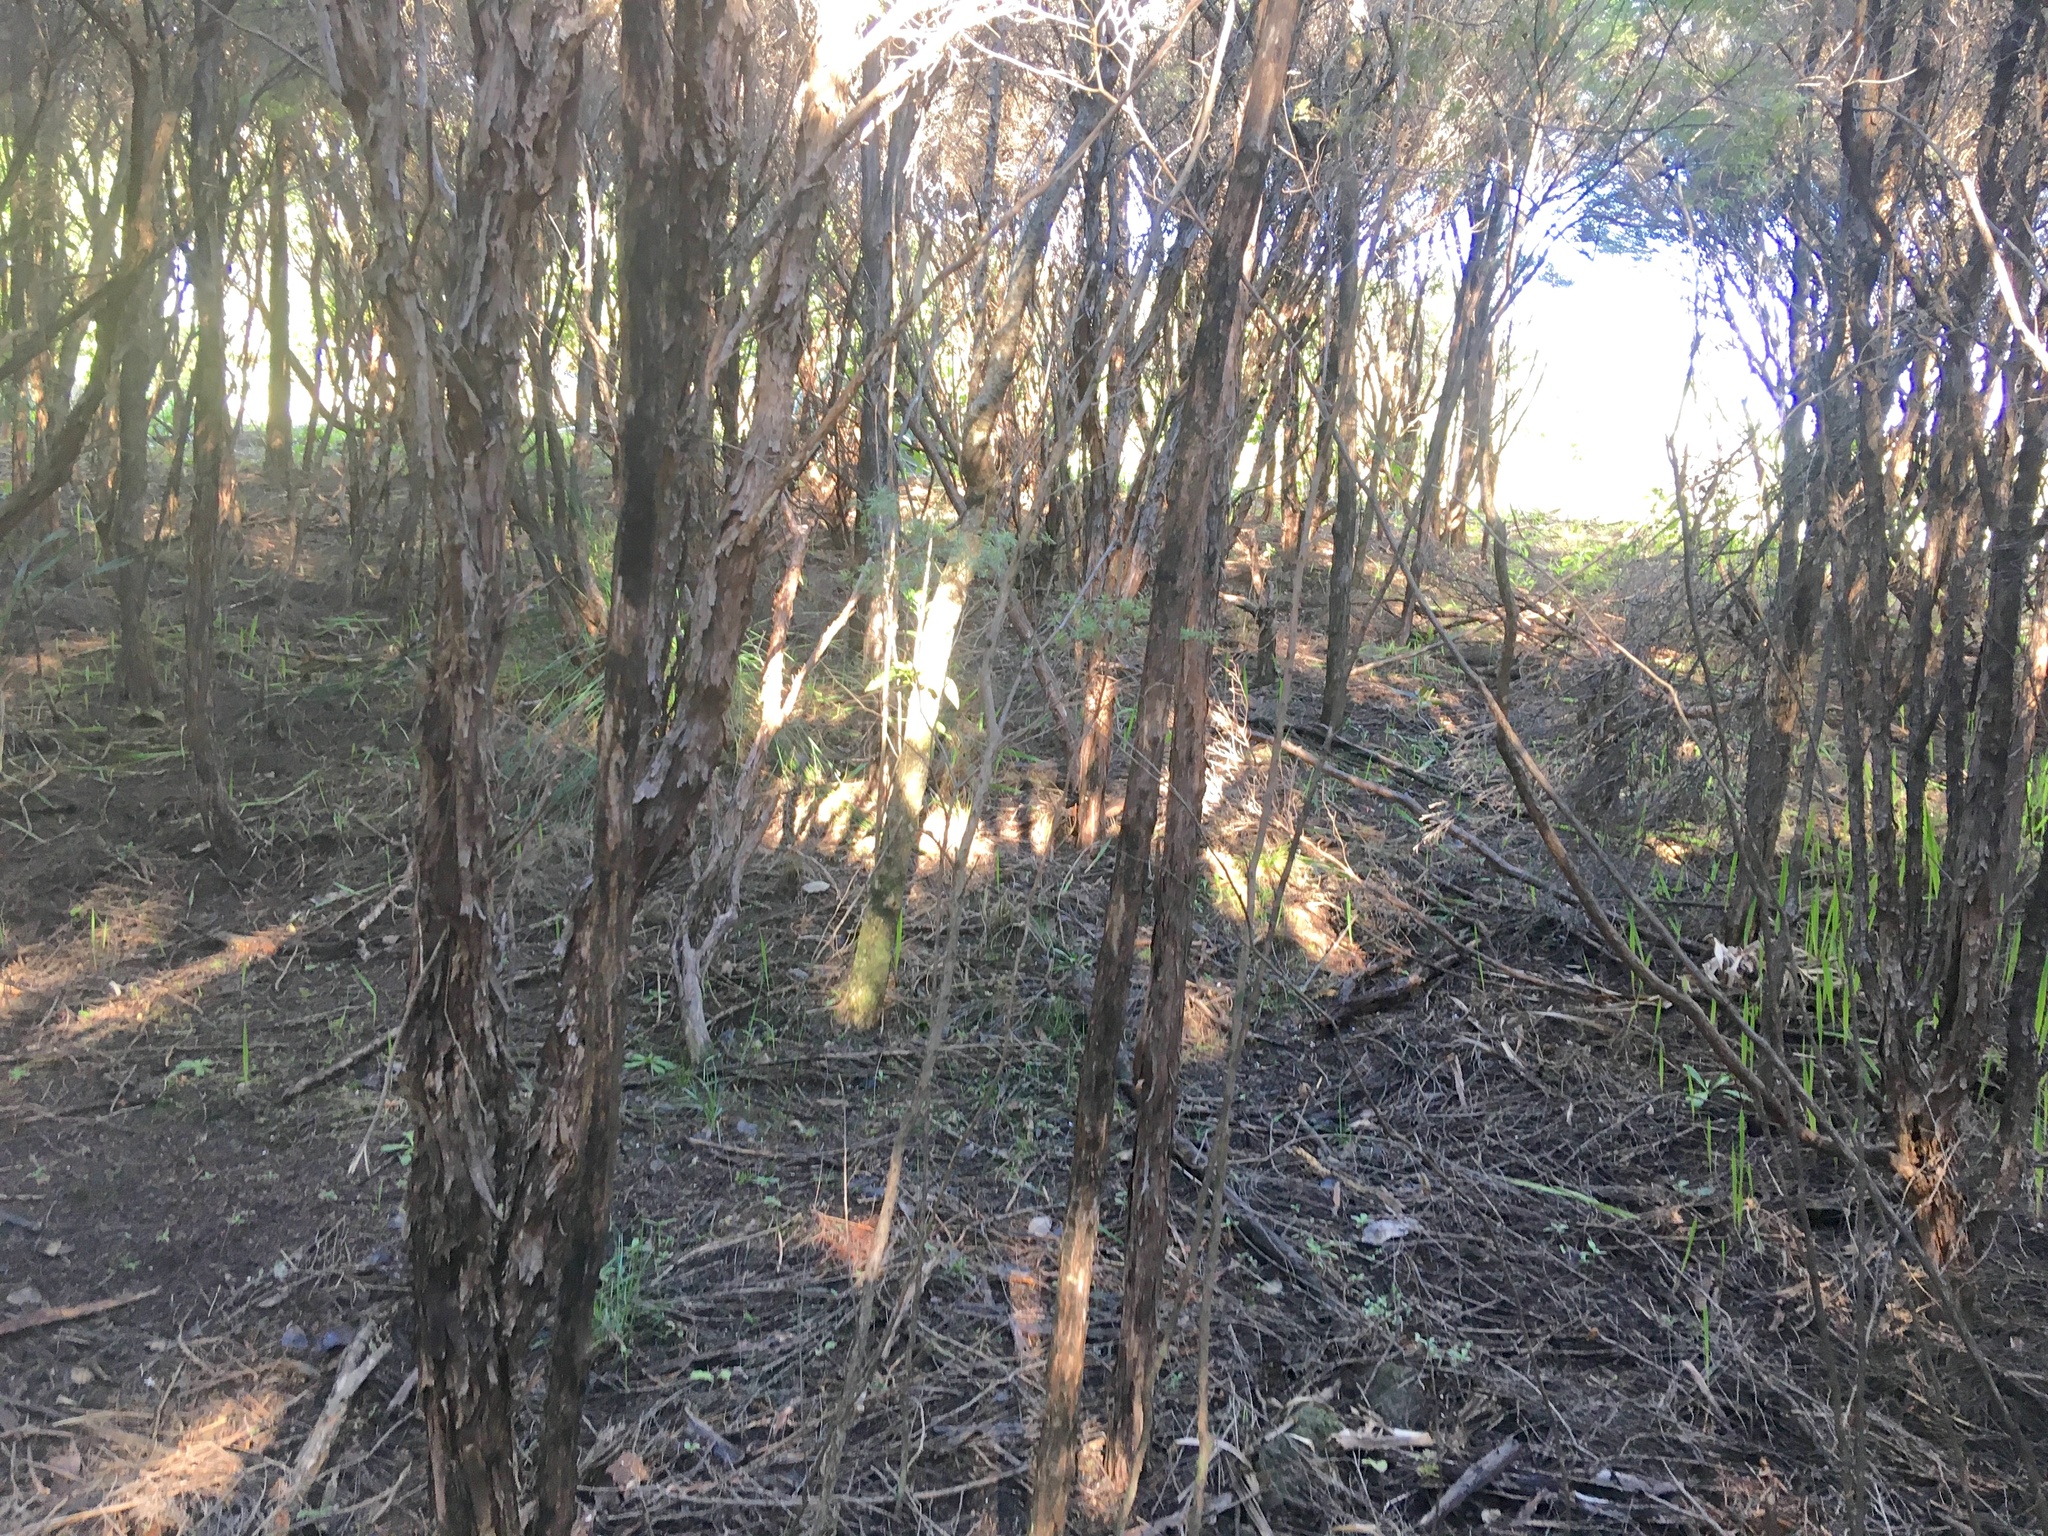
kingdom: Plantae
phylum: Tracheophyta
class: Magnoliopsida
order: Myrtales
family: Myrtaceae
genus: Leptospermum
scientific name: Leptospermum scoparium
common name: Broom tea-tree
